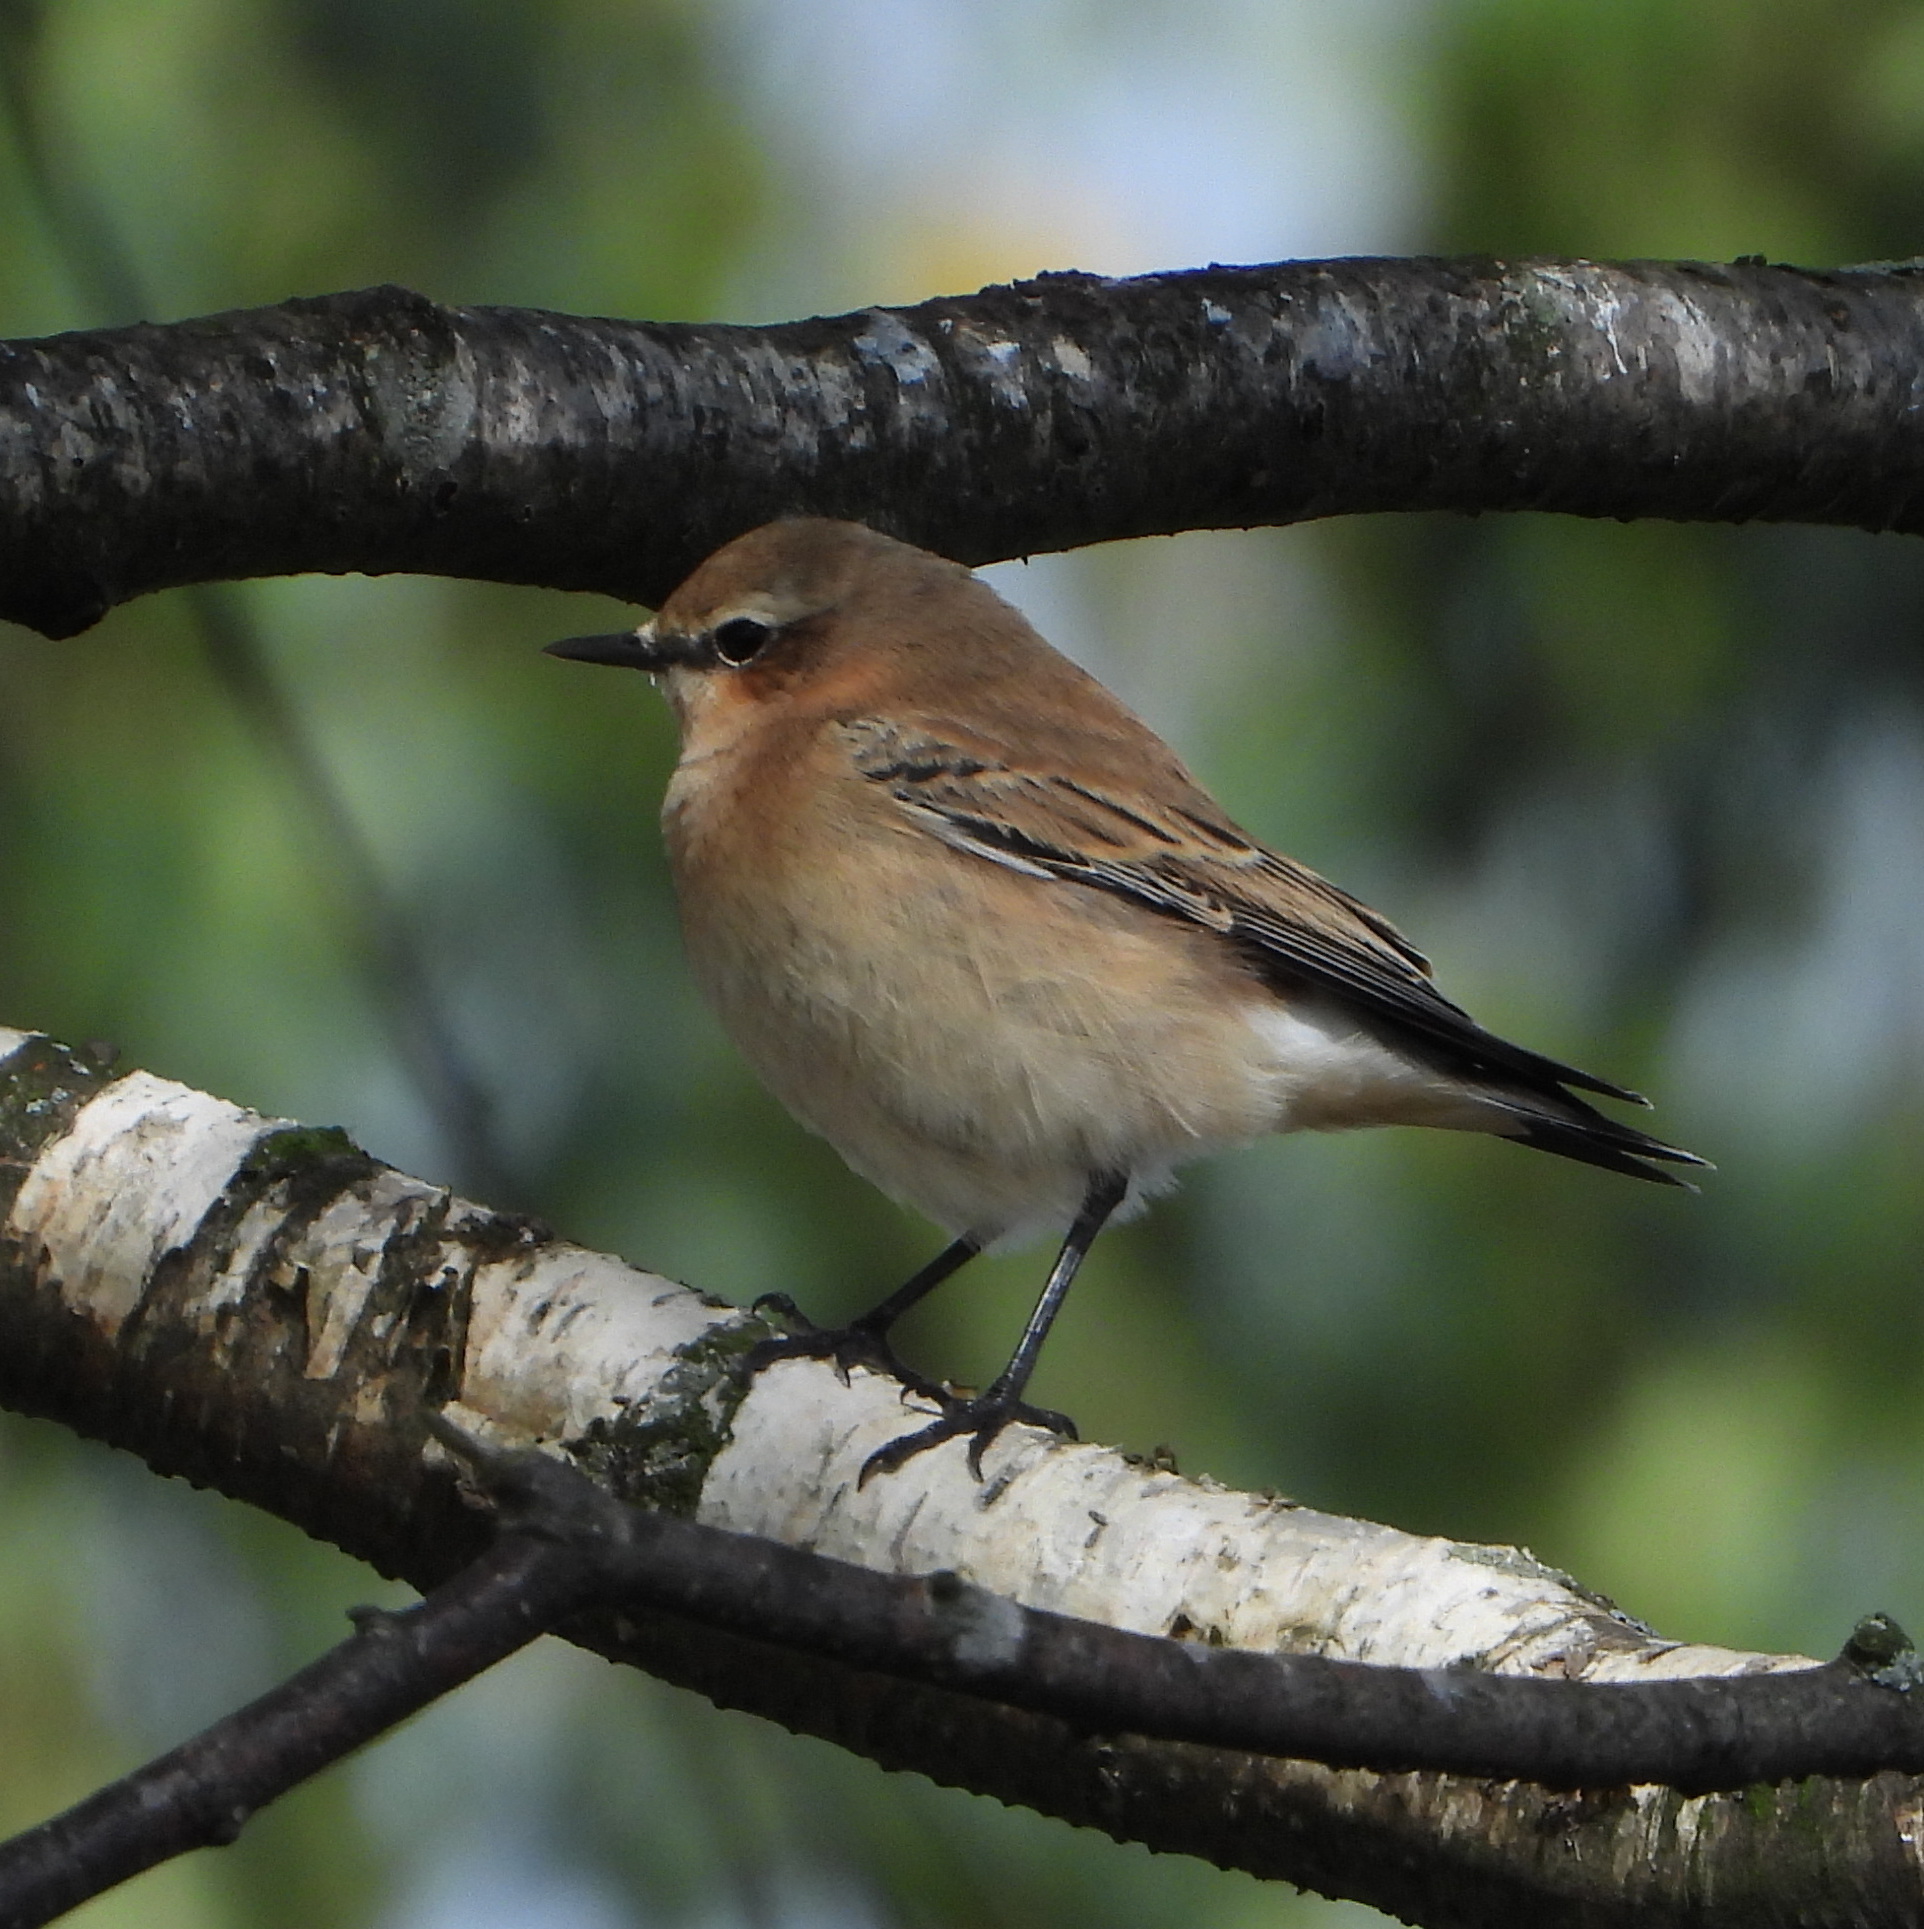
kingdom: Animalia
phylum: Chordata
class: Aves
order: Passeriformes
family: Muscicapidae
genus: Oenanthe
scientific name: Oenanthe oenanthe
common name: Northern wheatear
